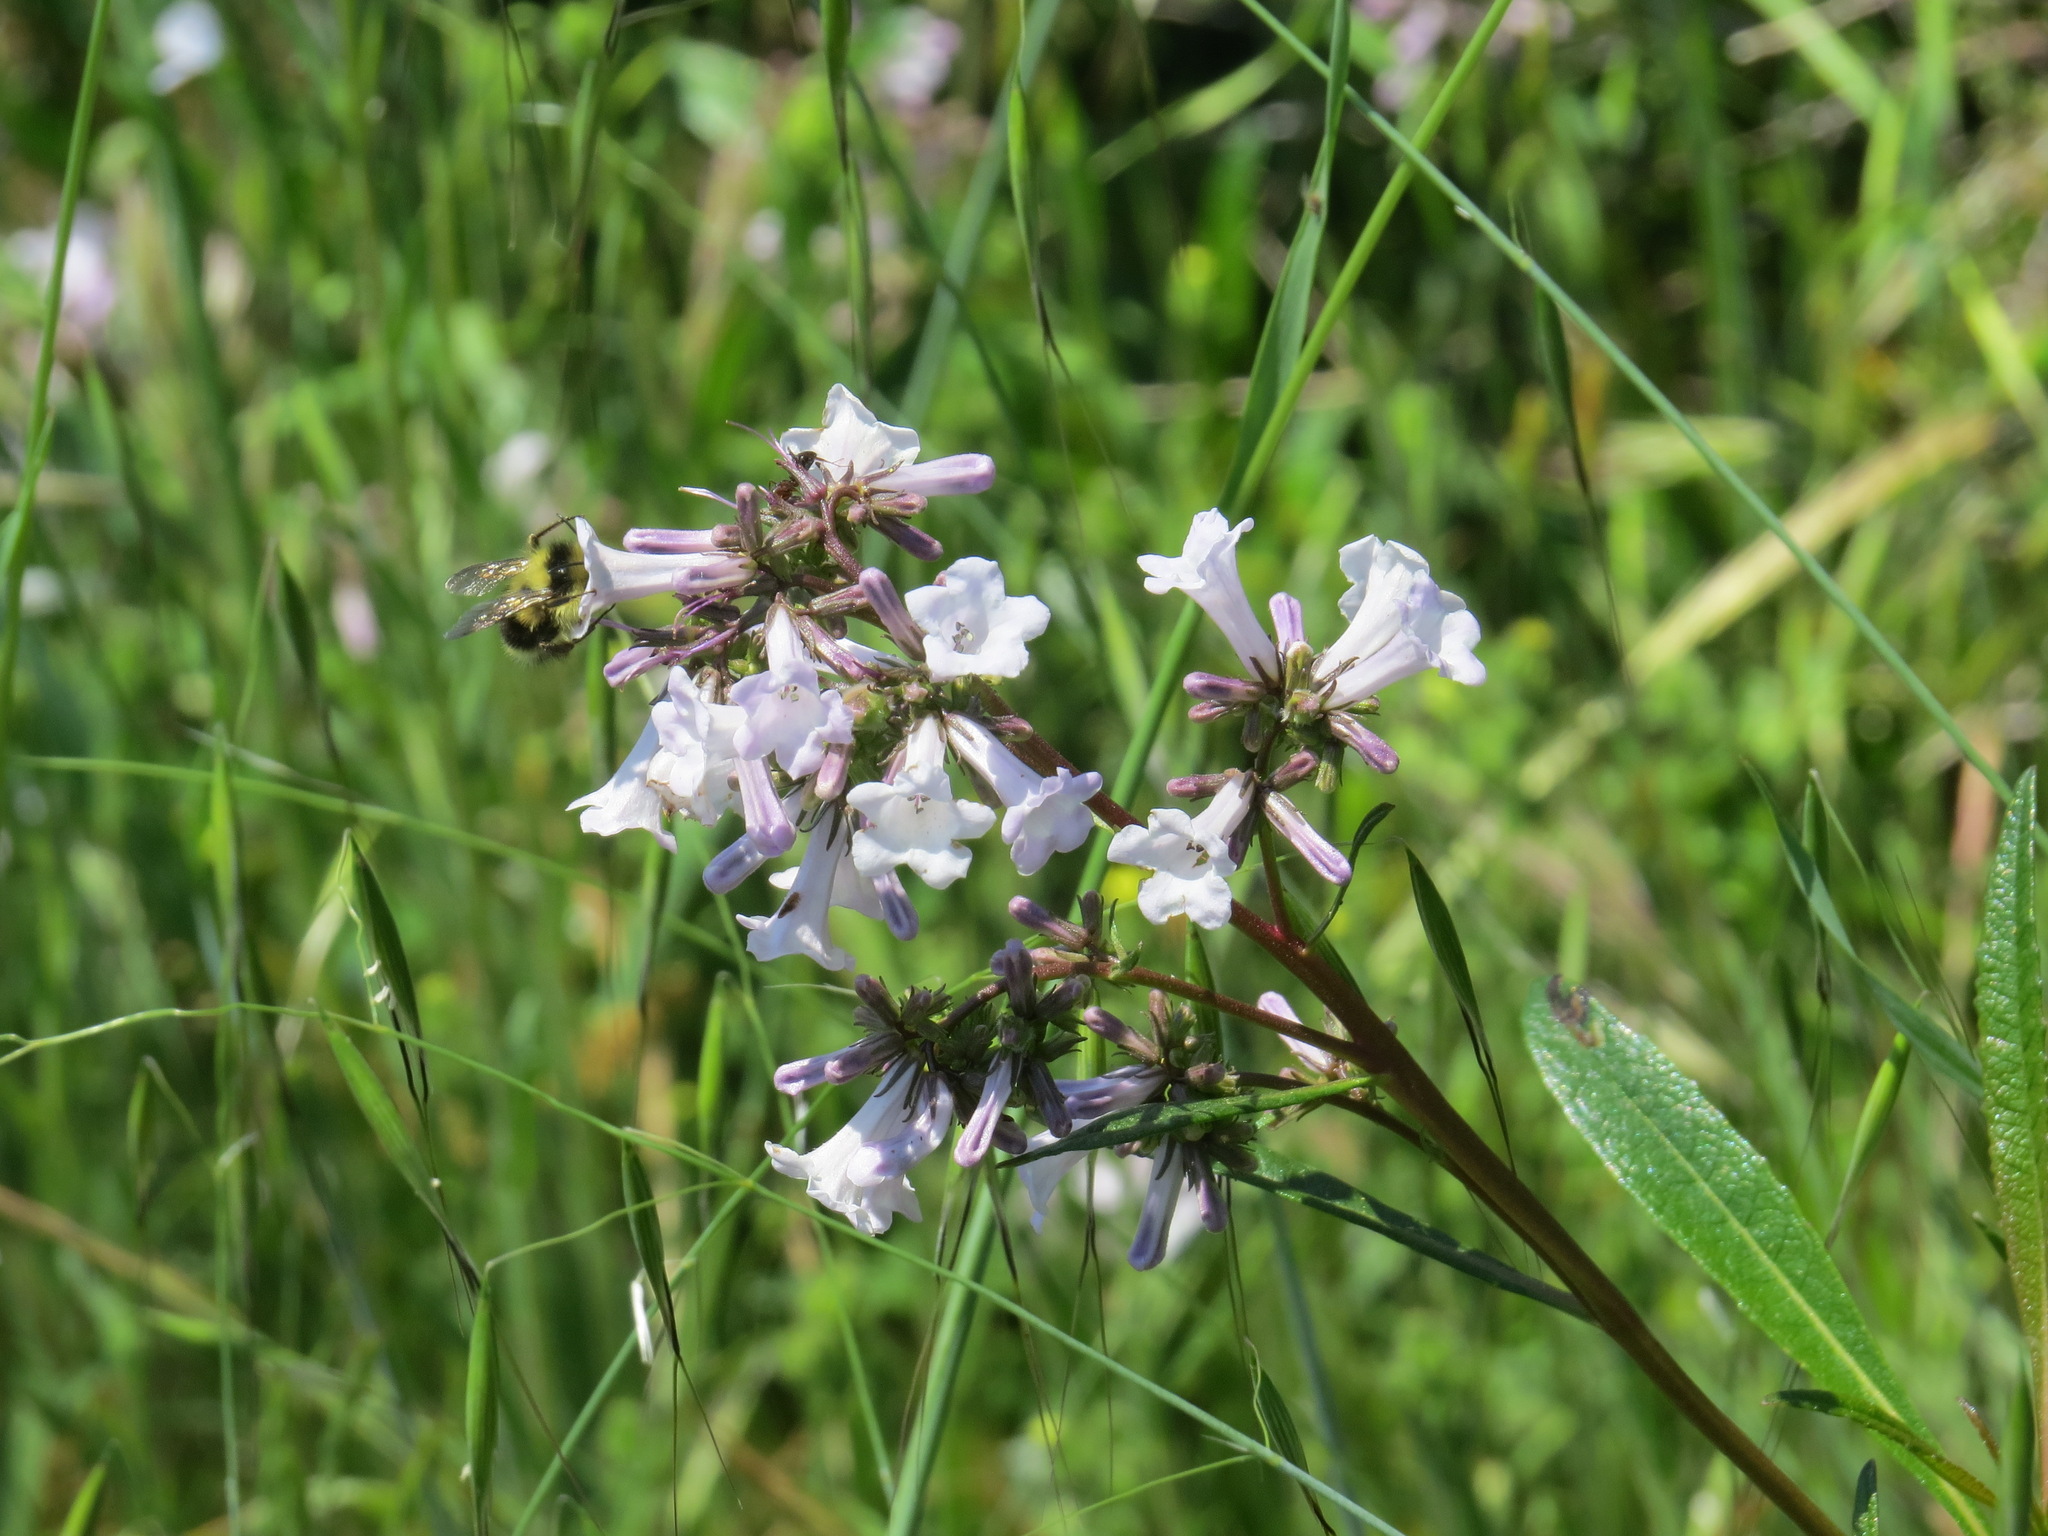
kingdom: Animalia
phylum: Arthropoda
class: Insecta
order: Hymenoptera
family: Apidae
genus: Bombus
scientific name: Bombus melanopygus
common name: Black tail bumble bee
